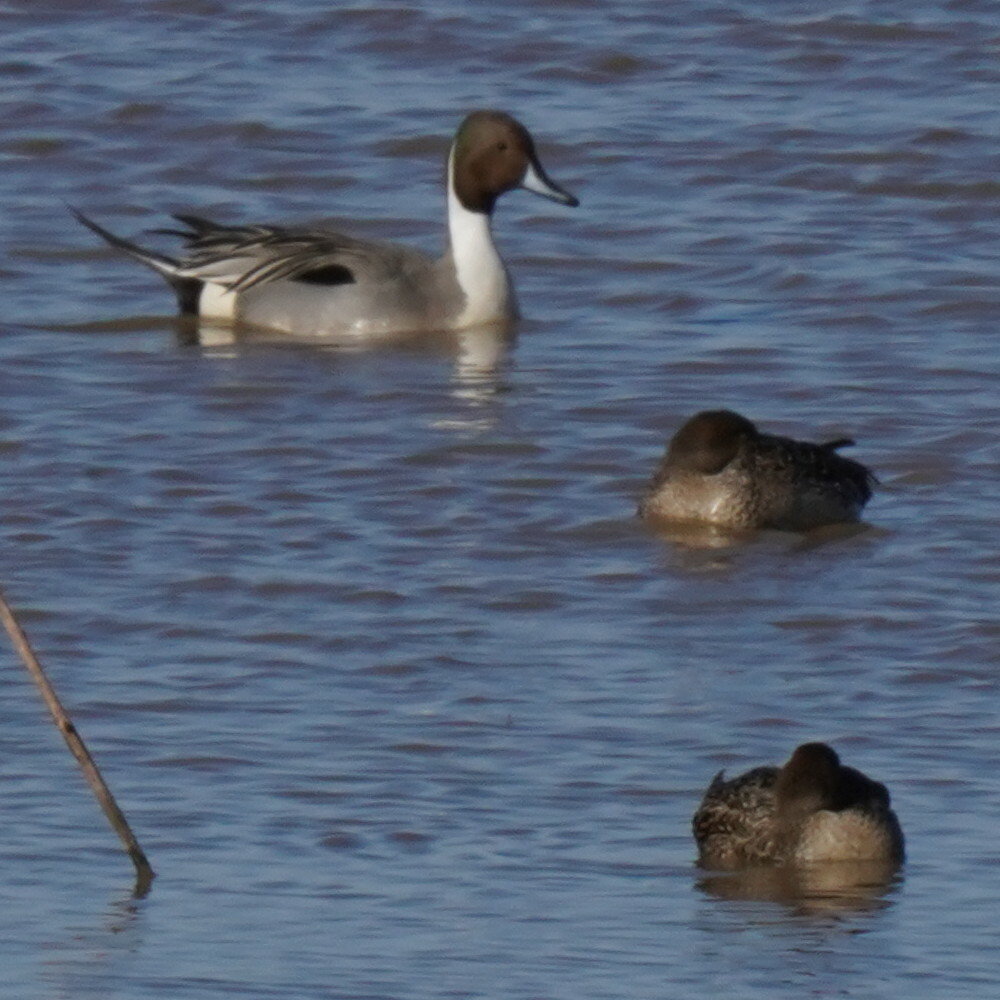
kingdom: Animalia
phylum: Chordata
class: Aves
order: Anseriformes
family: Anatidae
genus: Anas
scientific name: Anas acuta
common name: Northern pintail
